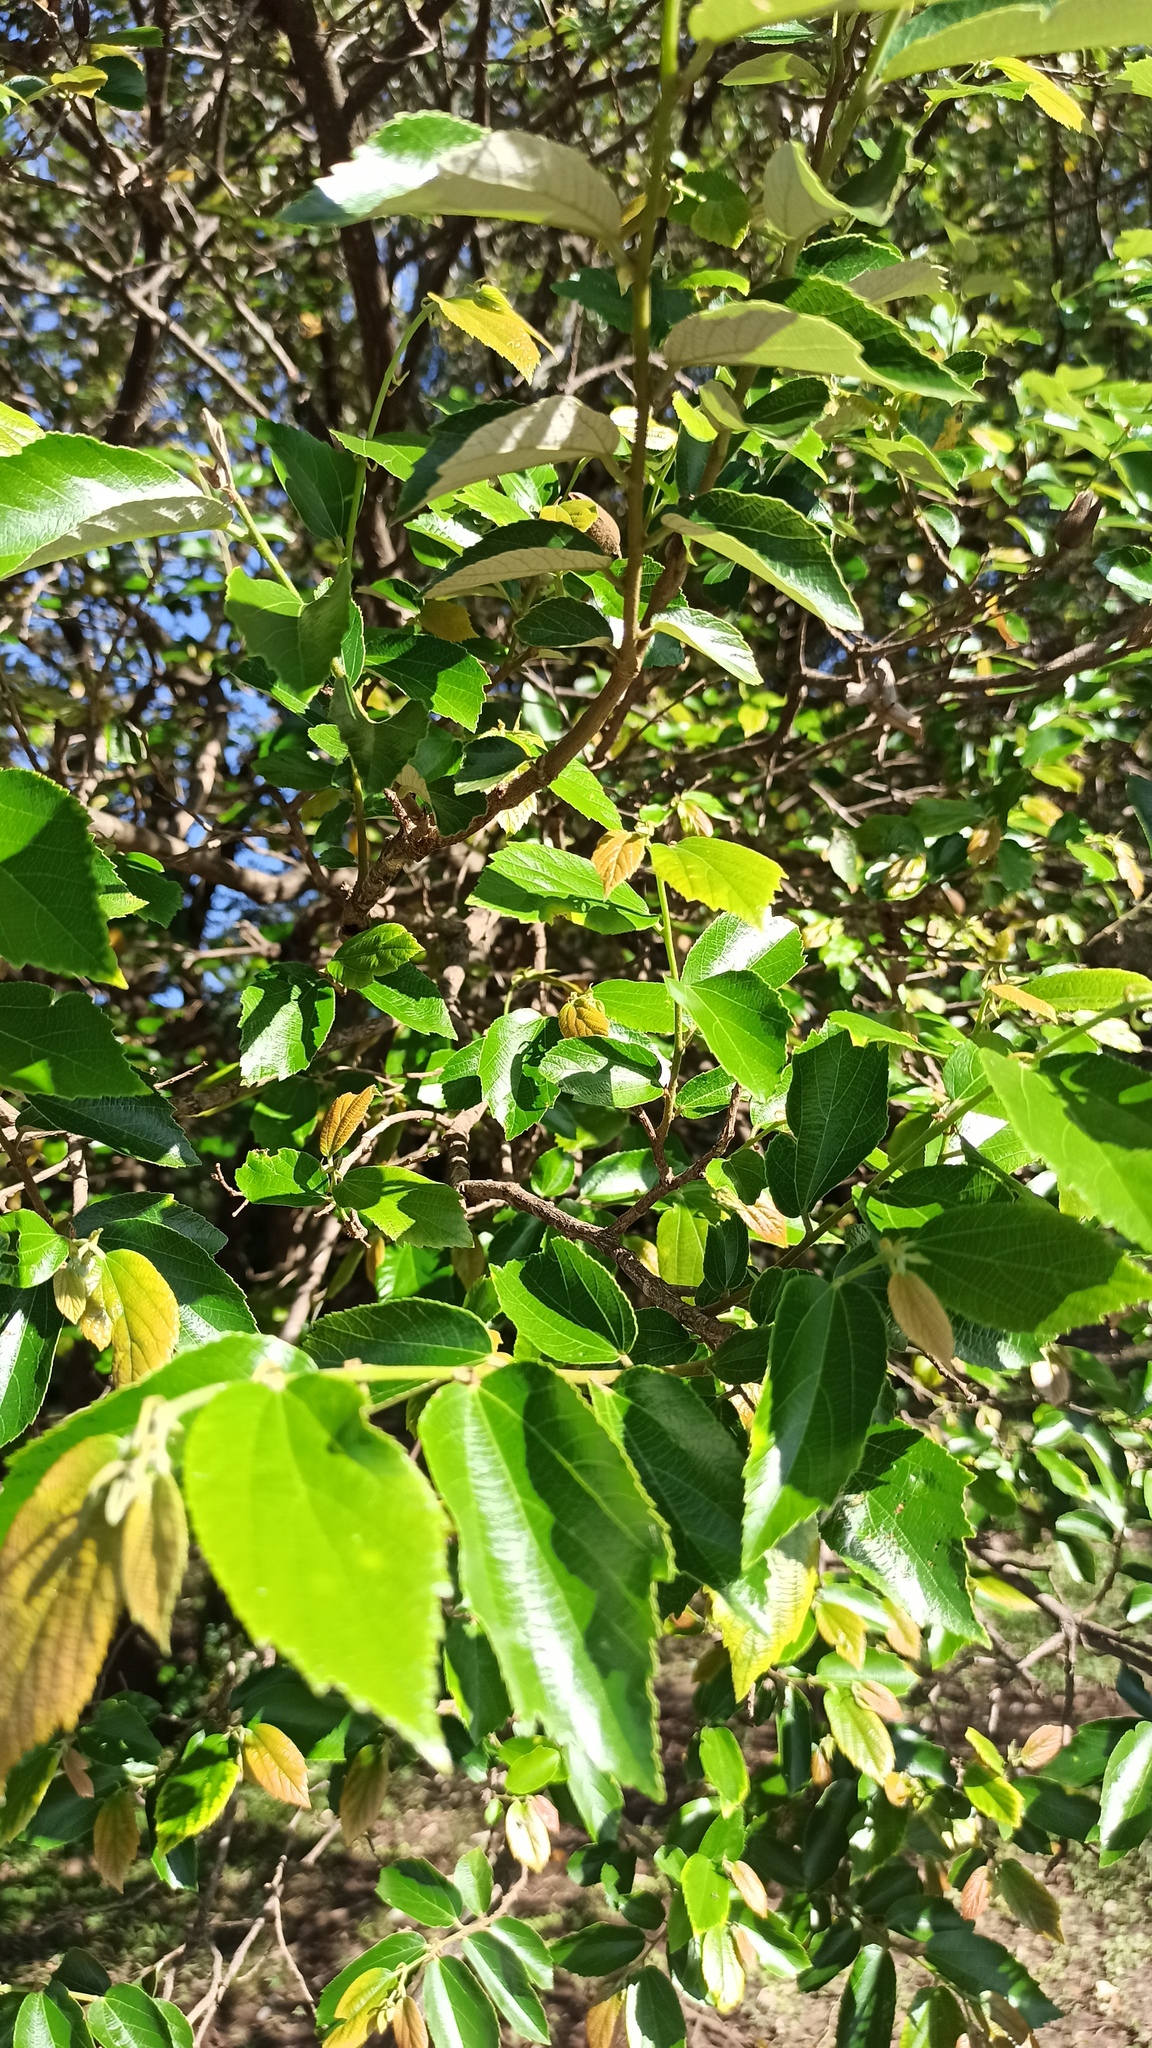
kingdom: Plantae
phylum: Tracheophyta
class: Magnoliopsida
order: Malvales
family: Malvaceae
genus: Luehea
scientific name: Luehea divaricata
